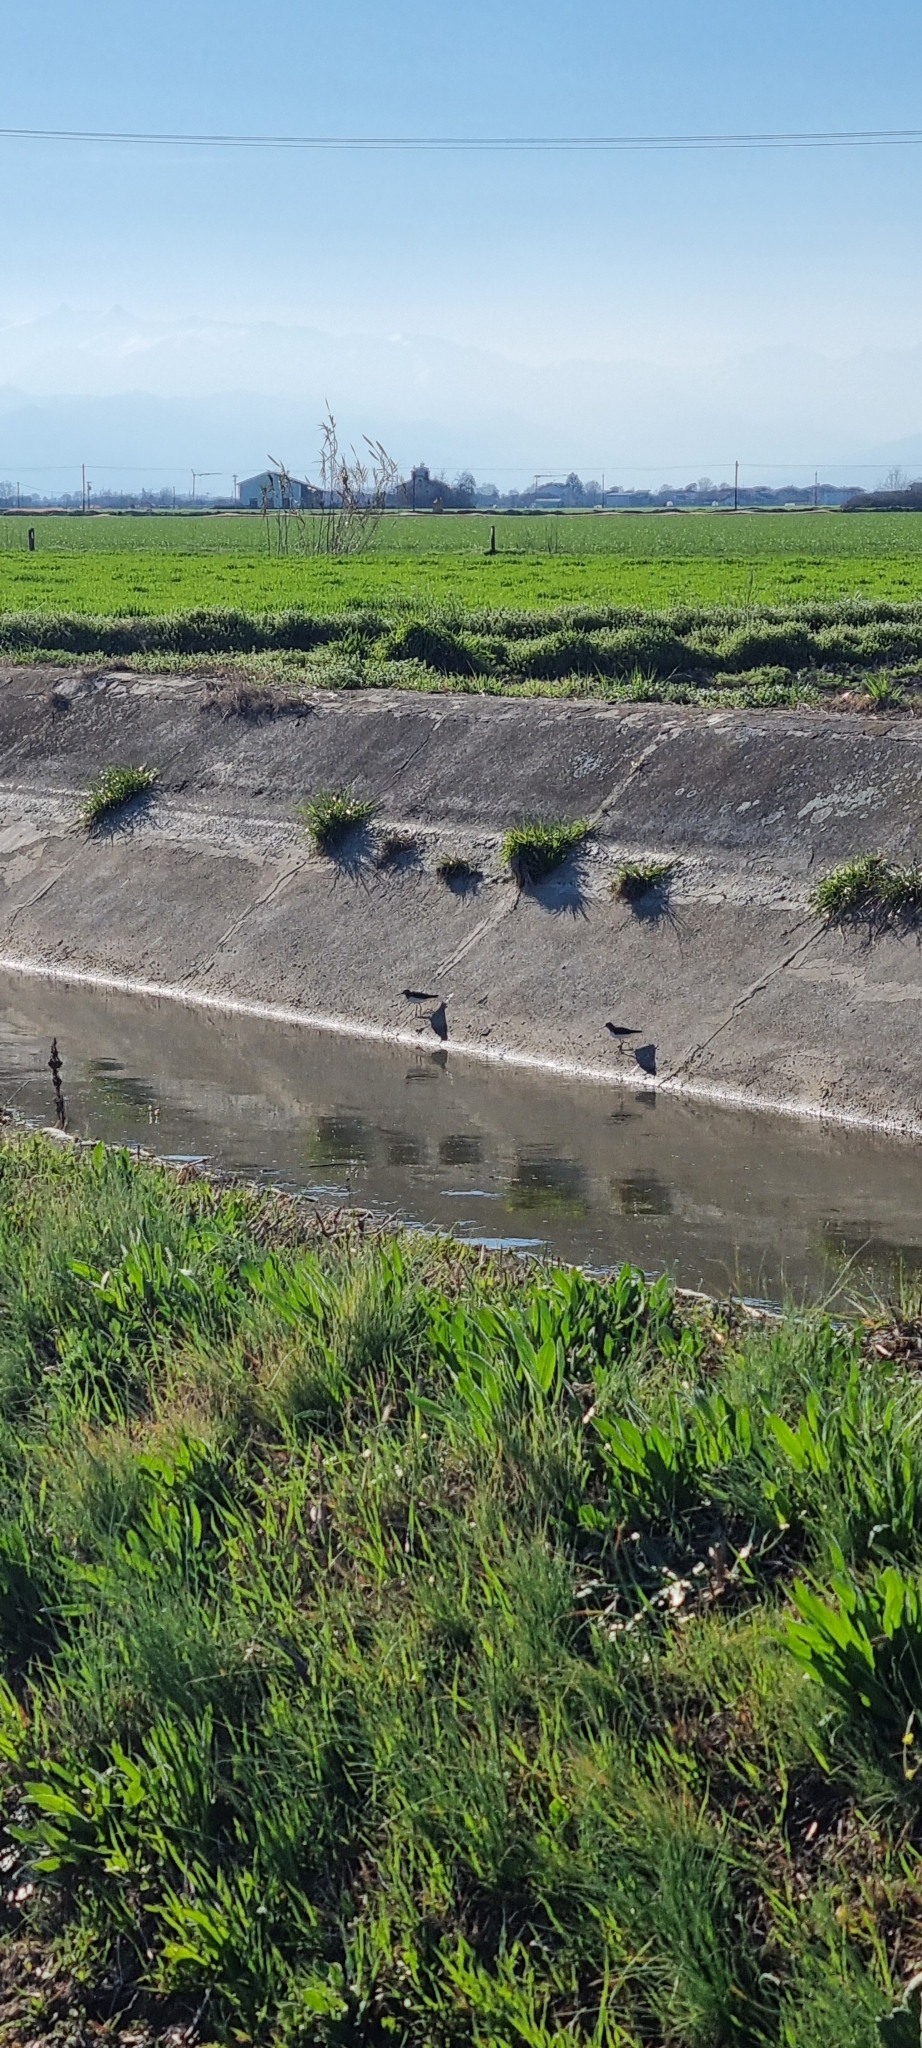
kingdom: Animalia
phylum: Chordata
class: Aves
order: Charadriiformes
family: Scolopacidae
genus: Tringa
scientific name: Tringa ochropus
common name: Green sandpiper
